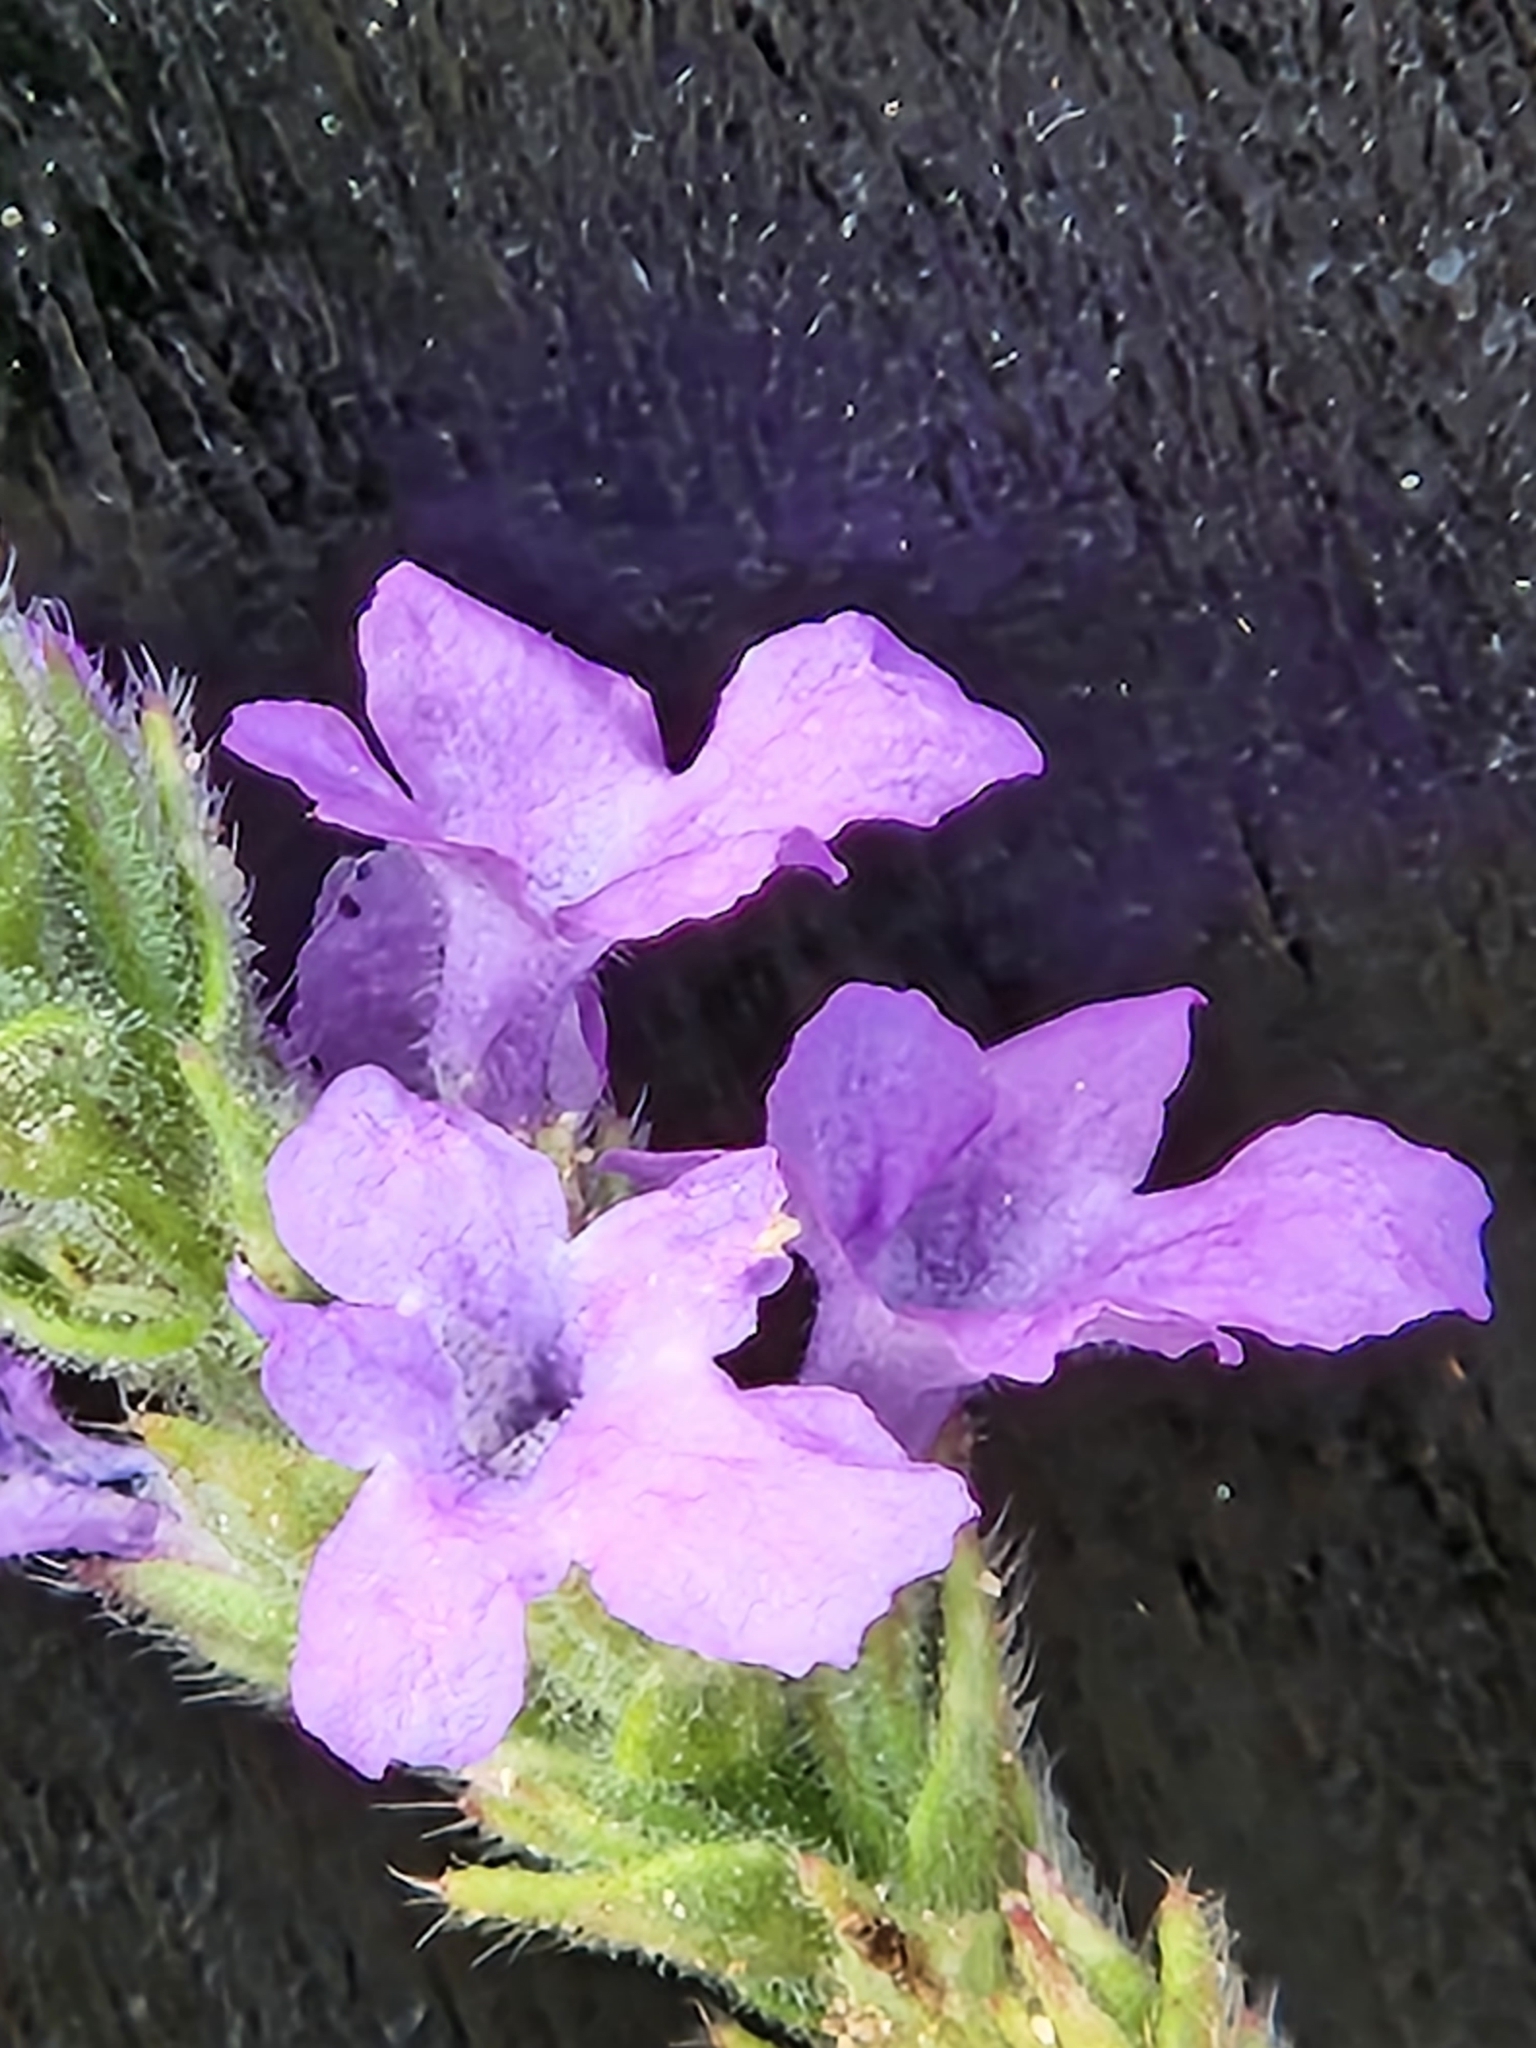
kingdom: Plantae
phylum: Tracheophyta
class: Magnoliopsida
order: Lamiales
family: Verbenaceae
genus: Verbena
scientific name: Verbena canescens
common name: Gray vervain
